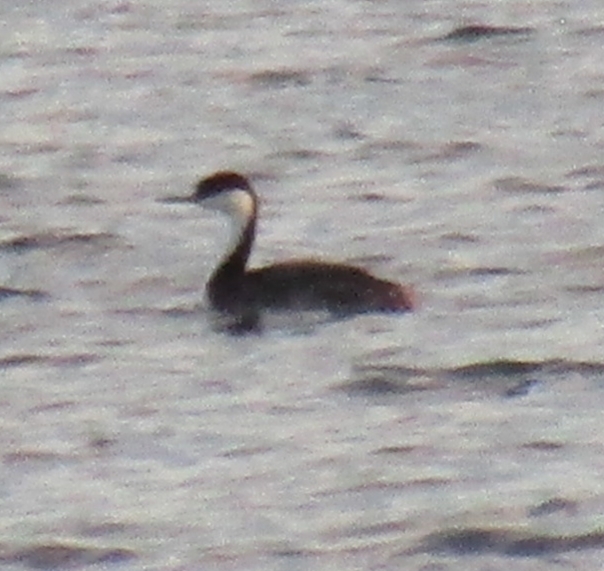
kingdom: Animalia
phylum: Chordata
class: Aves
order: Podicipediformes
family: Podicipedidae
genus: Aechmophorus
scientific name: Aechmophorus occidentalis
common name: Western grebe
